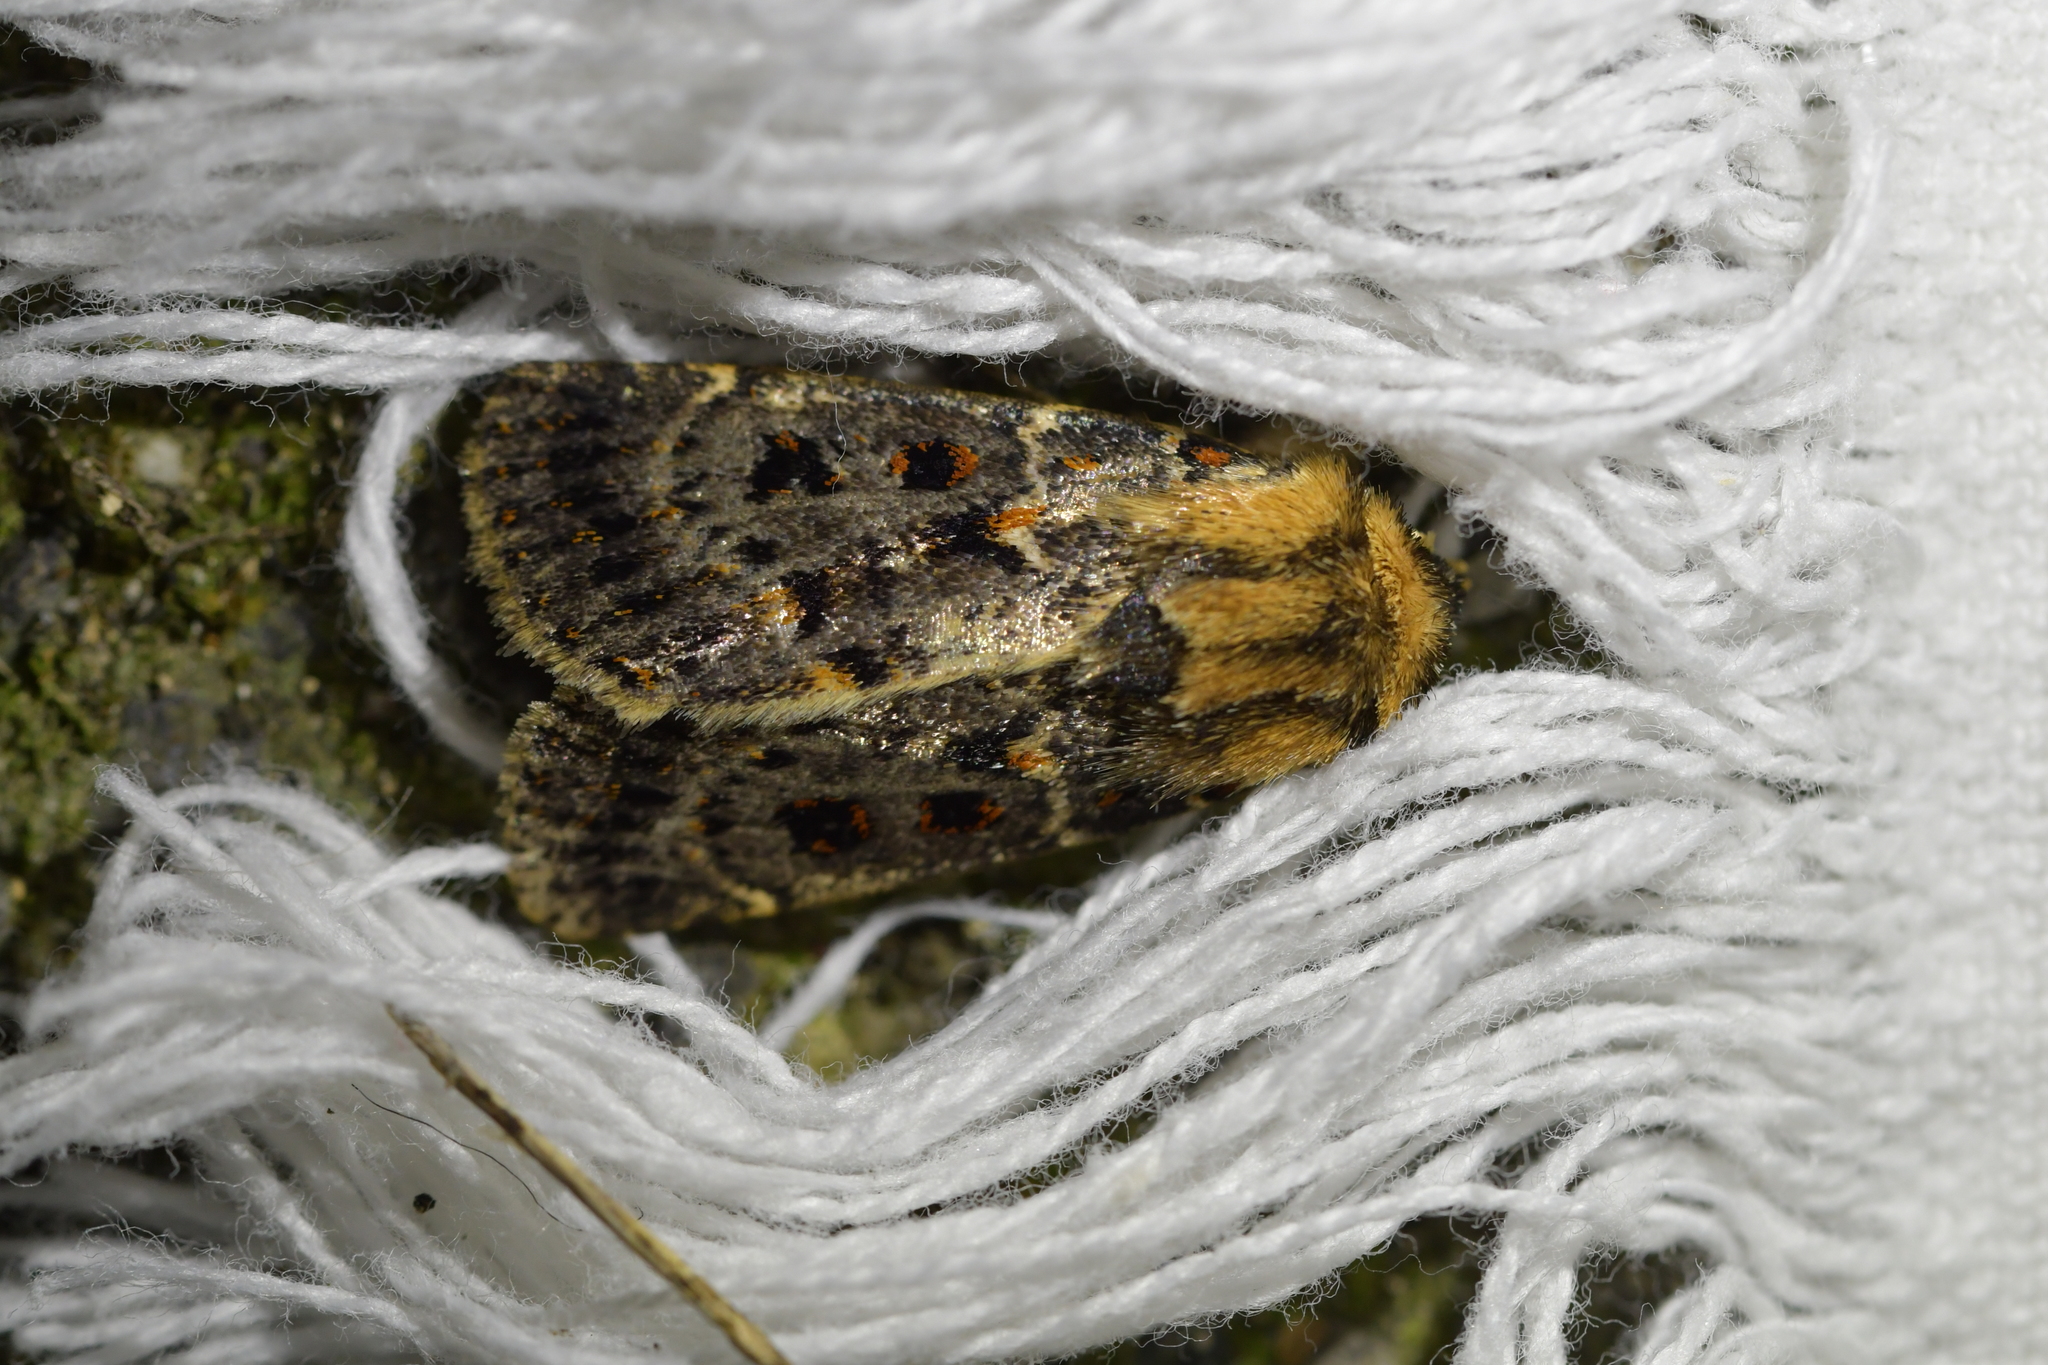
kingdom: Animalia
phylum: Arthropoda
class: Insecta
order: Lepidoptera
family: Noctuidae
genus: Proteuxoa
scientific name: Proteuxoa sanguinipuncta
